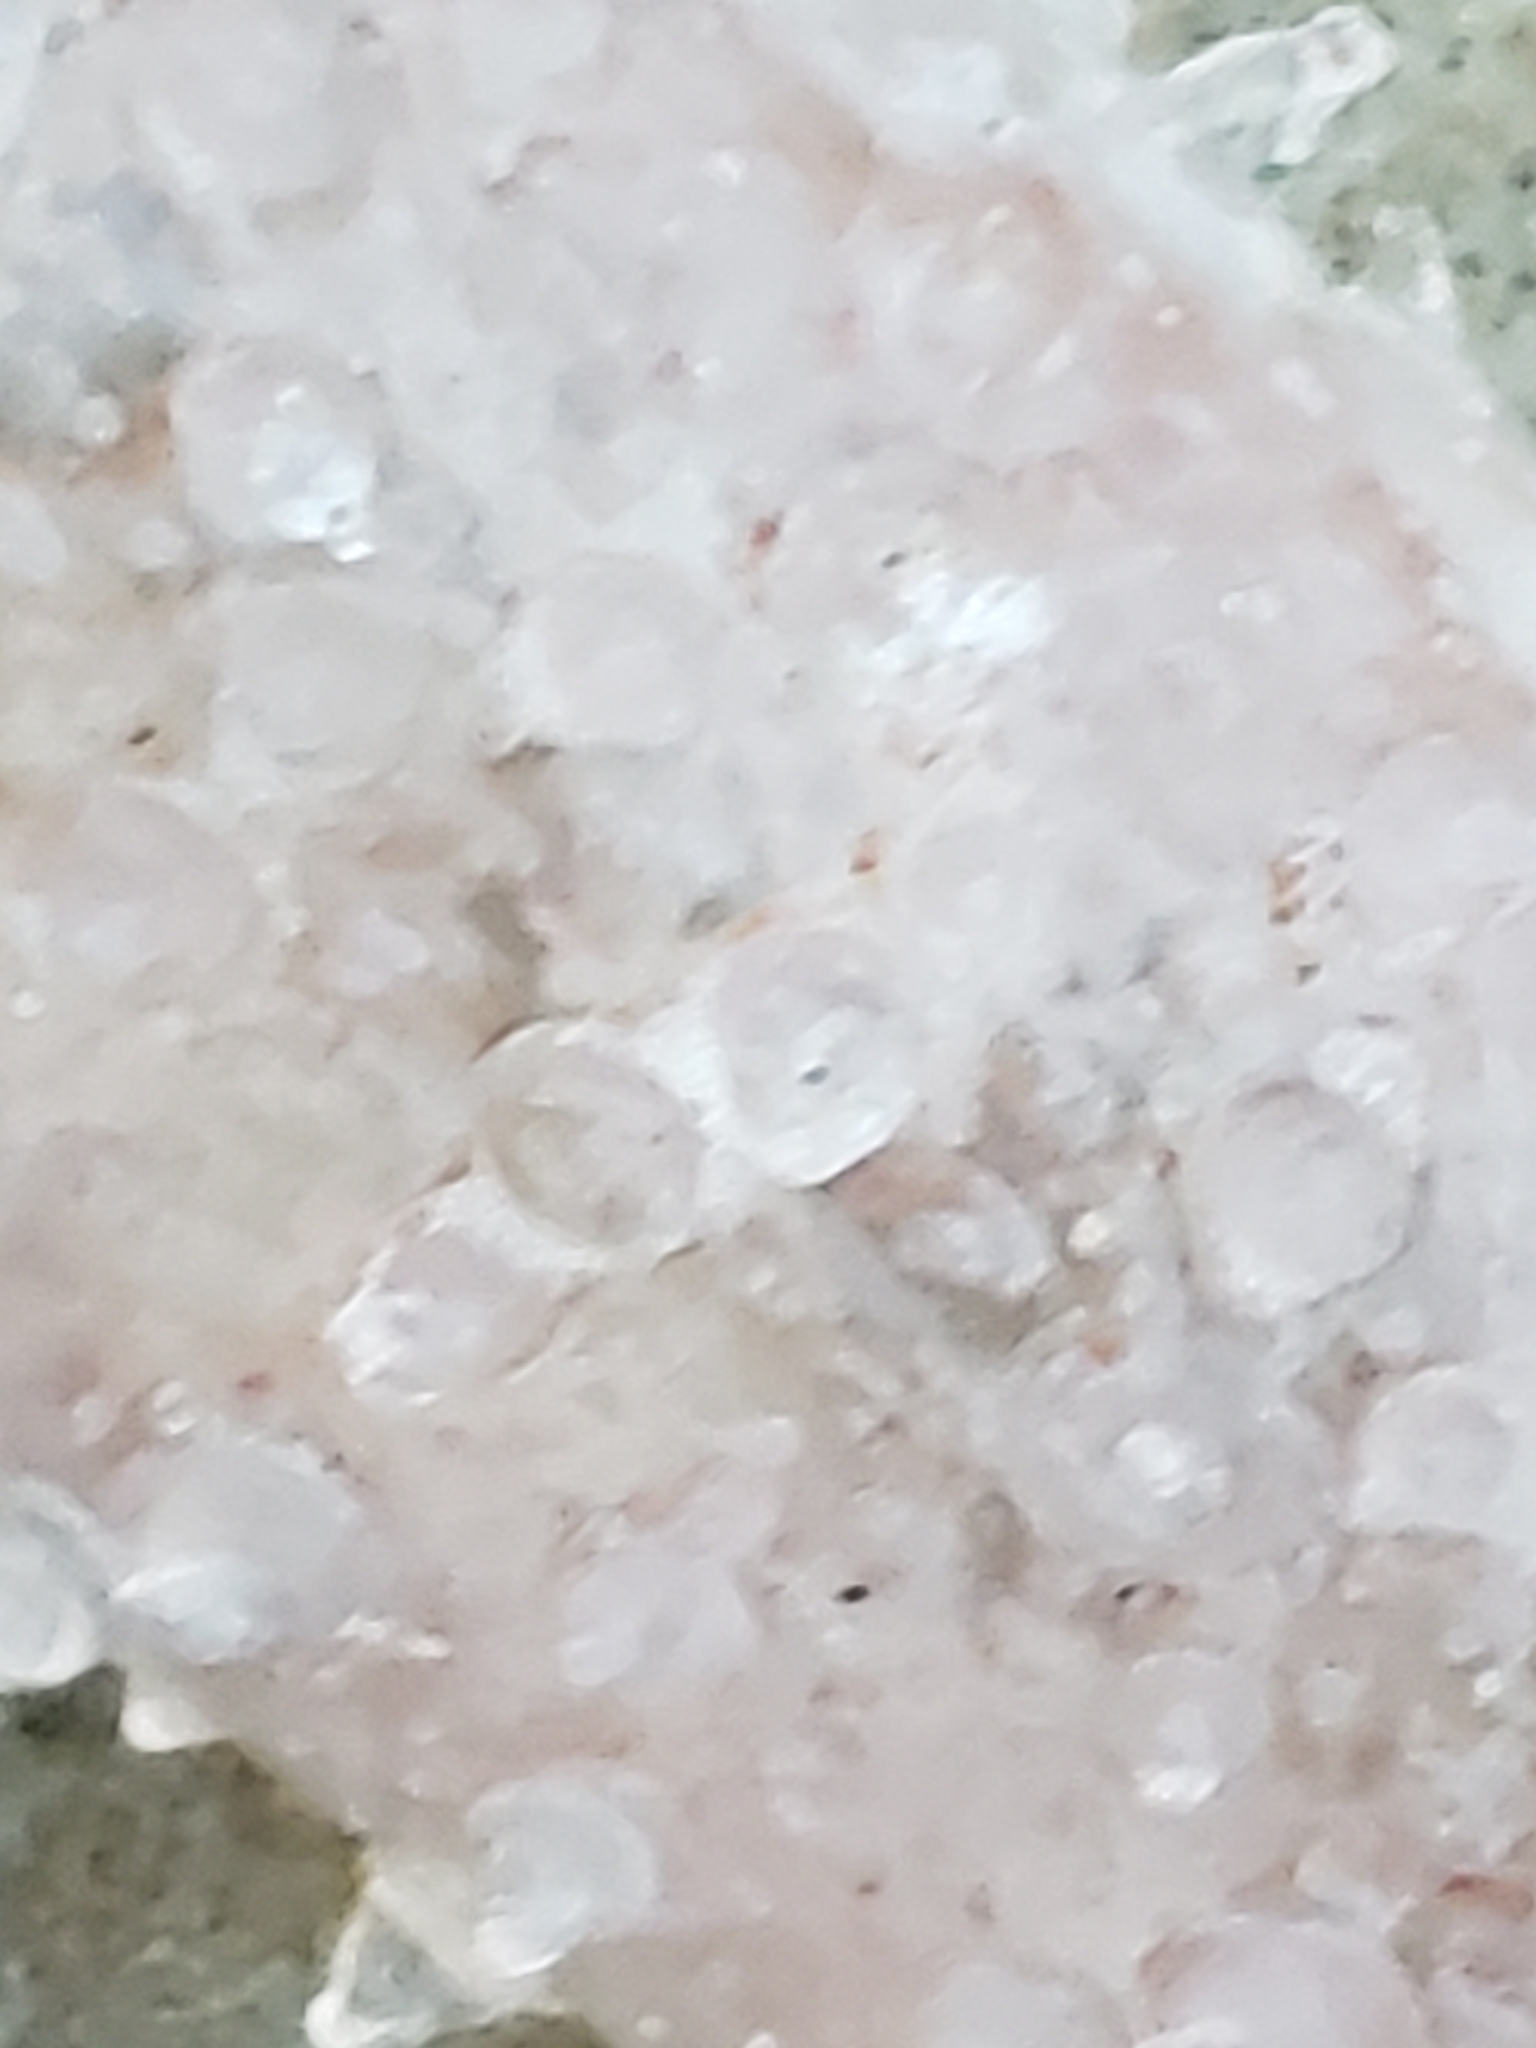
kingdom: Animalia
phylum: Chordata
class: Thaliacea
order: Pyrosomatida
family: Pyrosomatidae
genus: Pyrosoma
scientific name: Pyrosoma atlanticum
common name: Atlantic pyrosomes
